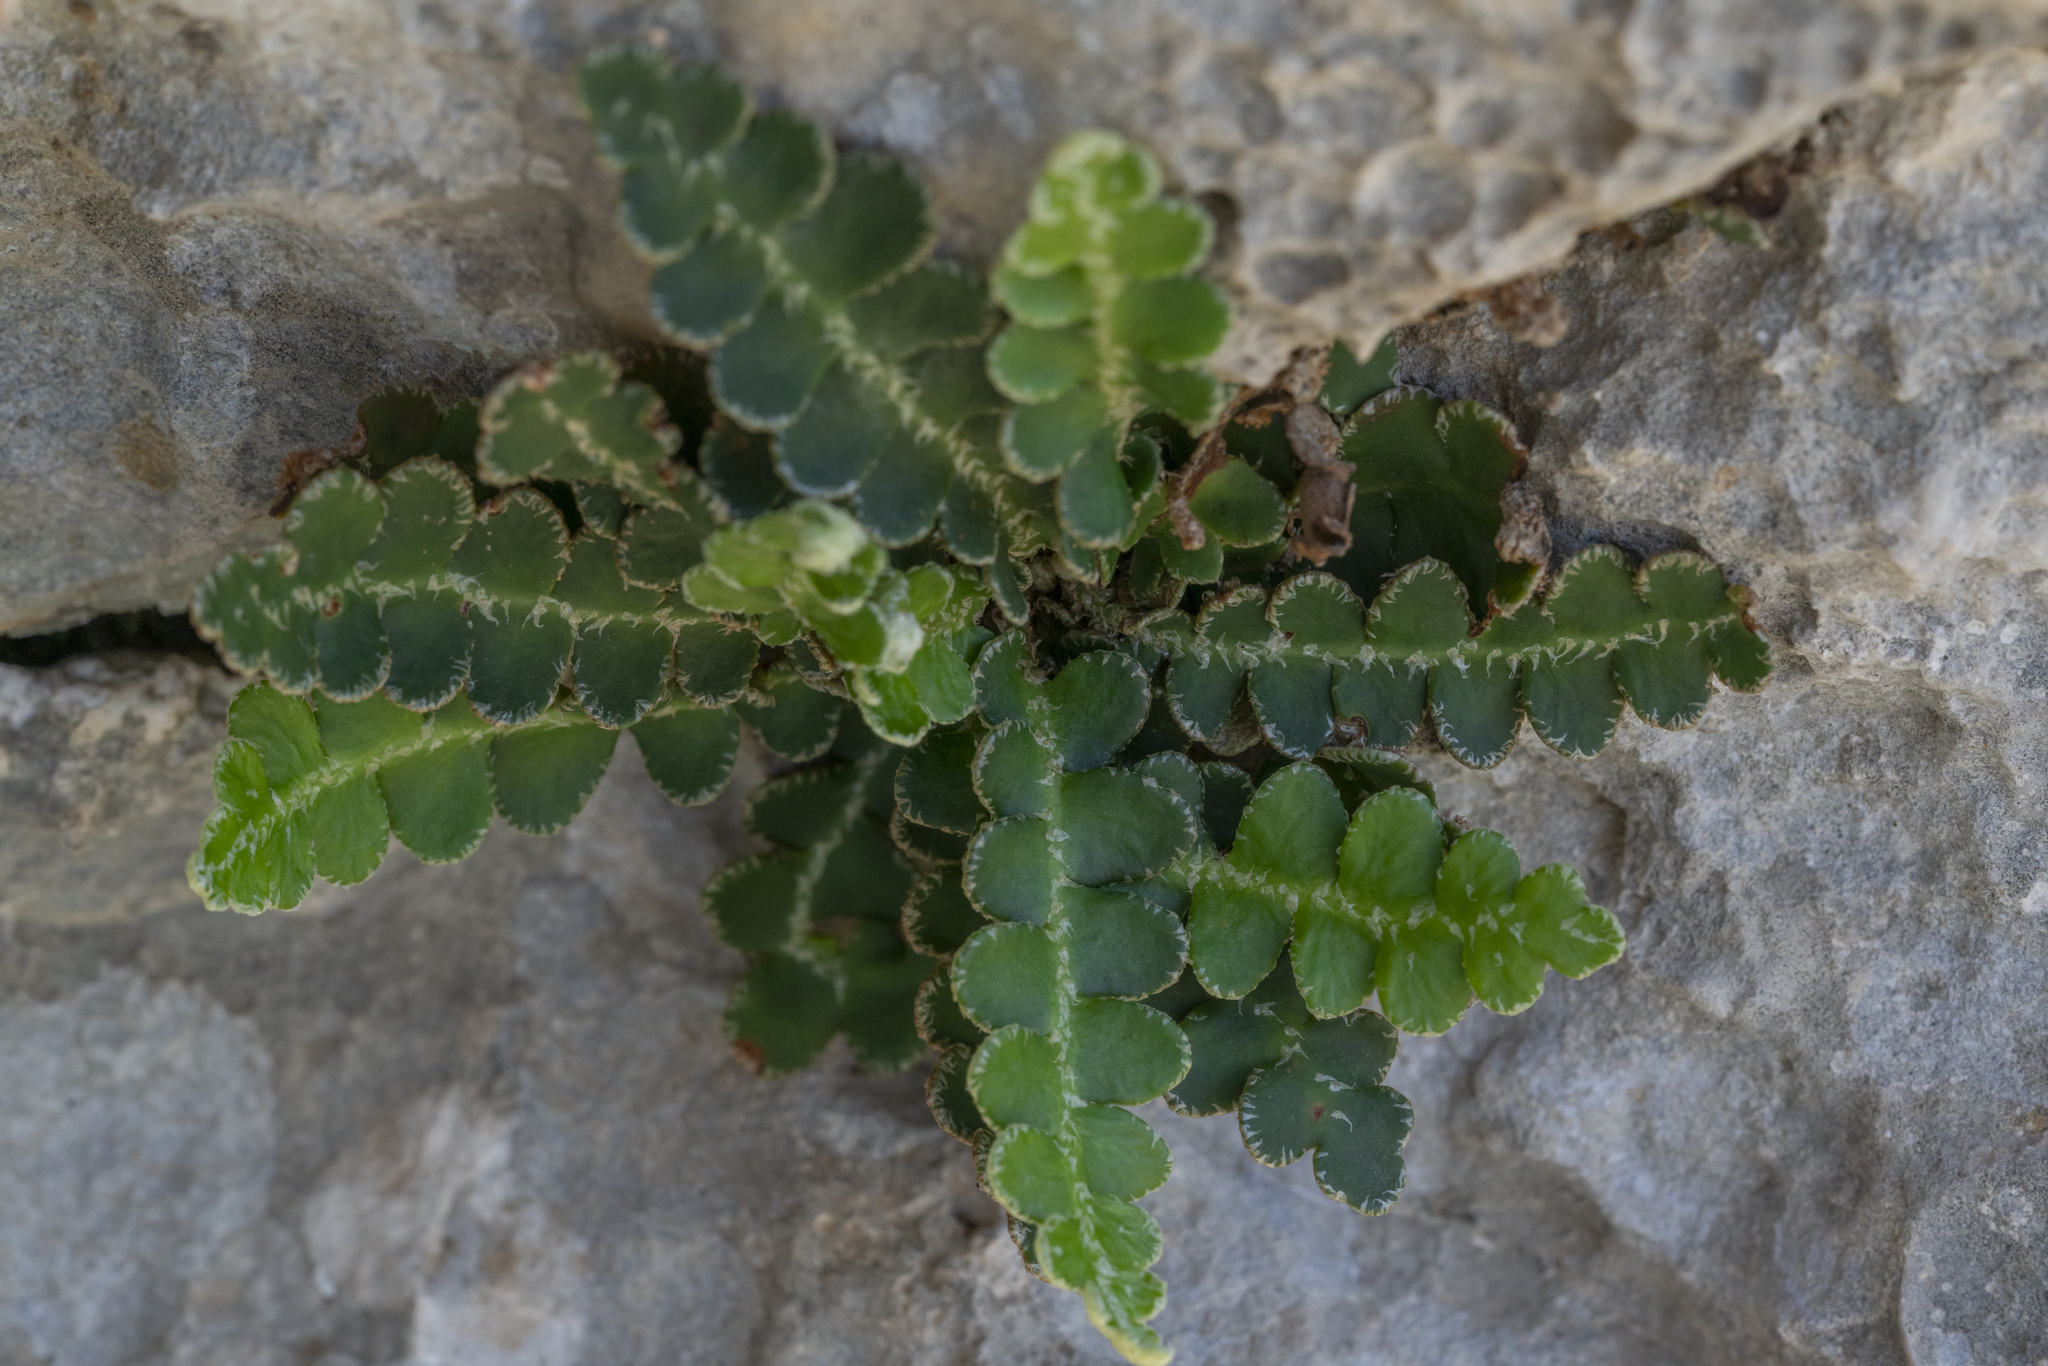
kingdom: Plantae
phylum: Tracheophyta
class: Polypodiopsida
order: Polypodiales
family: Aspleniaceae
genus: Asplenium
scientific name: Asplenium ceterach
